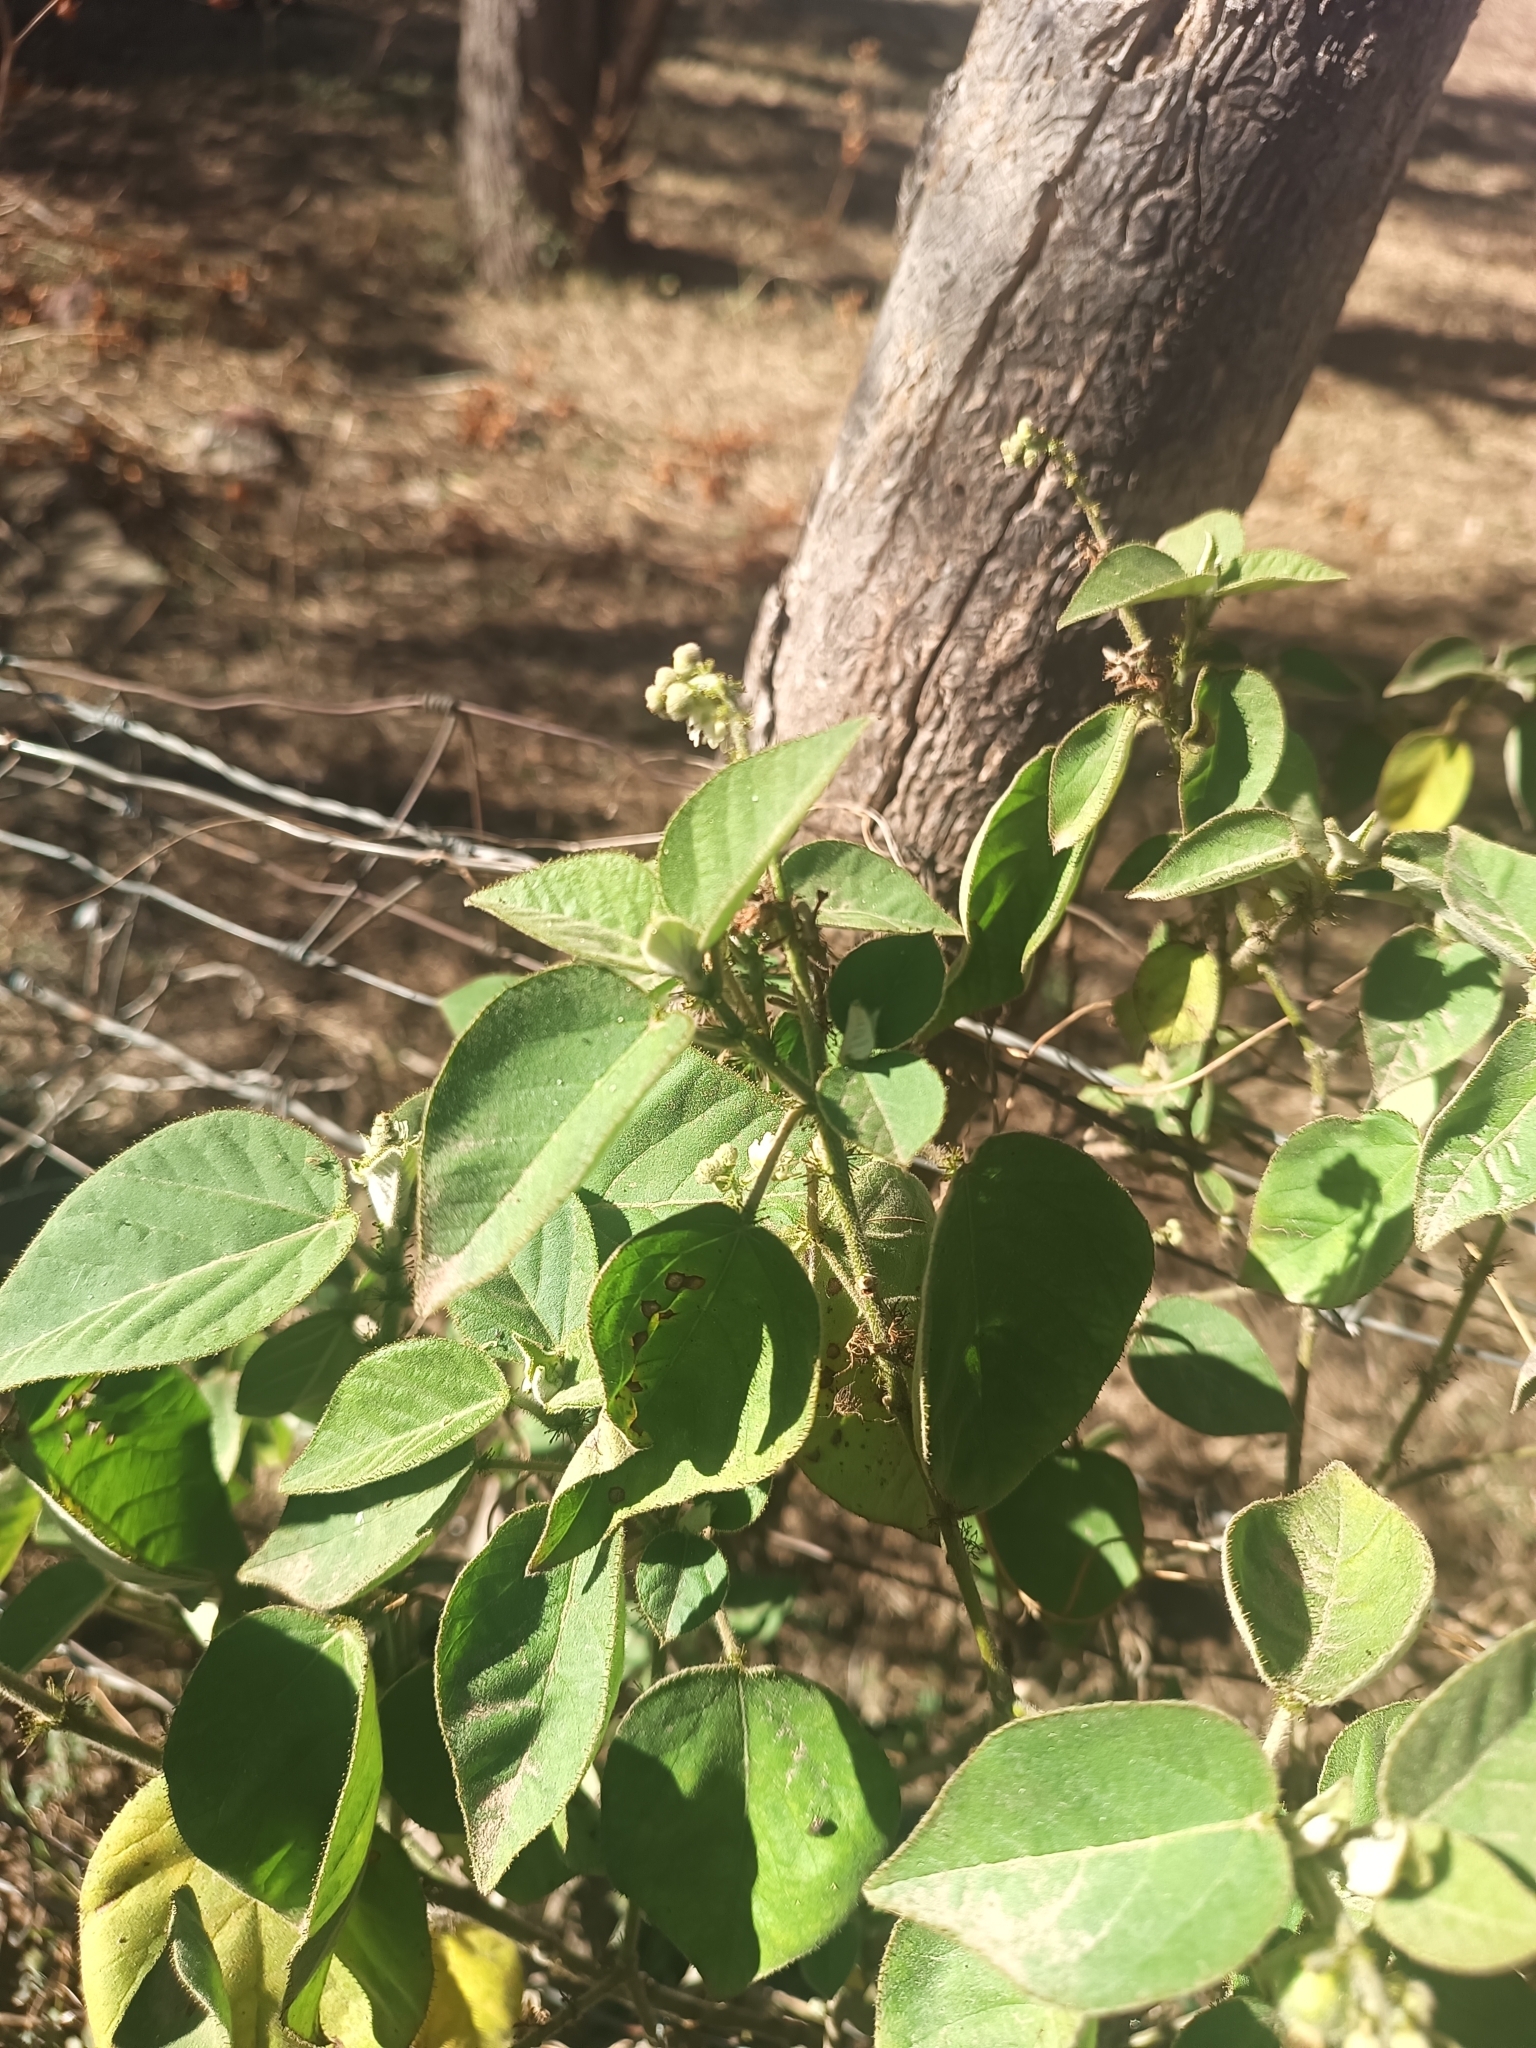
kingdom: Plantae
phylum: Tracheophyta
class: Magnoliopsida
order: Malpighiales
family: Euphorbiaceae
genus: Croton
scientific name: Croton ciliatoglandulifer
